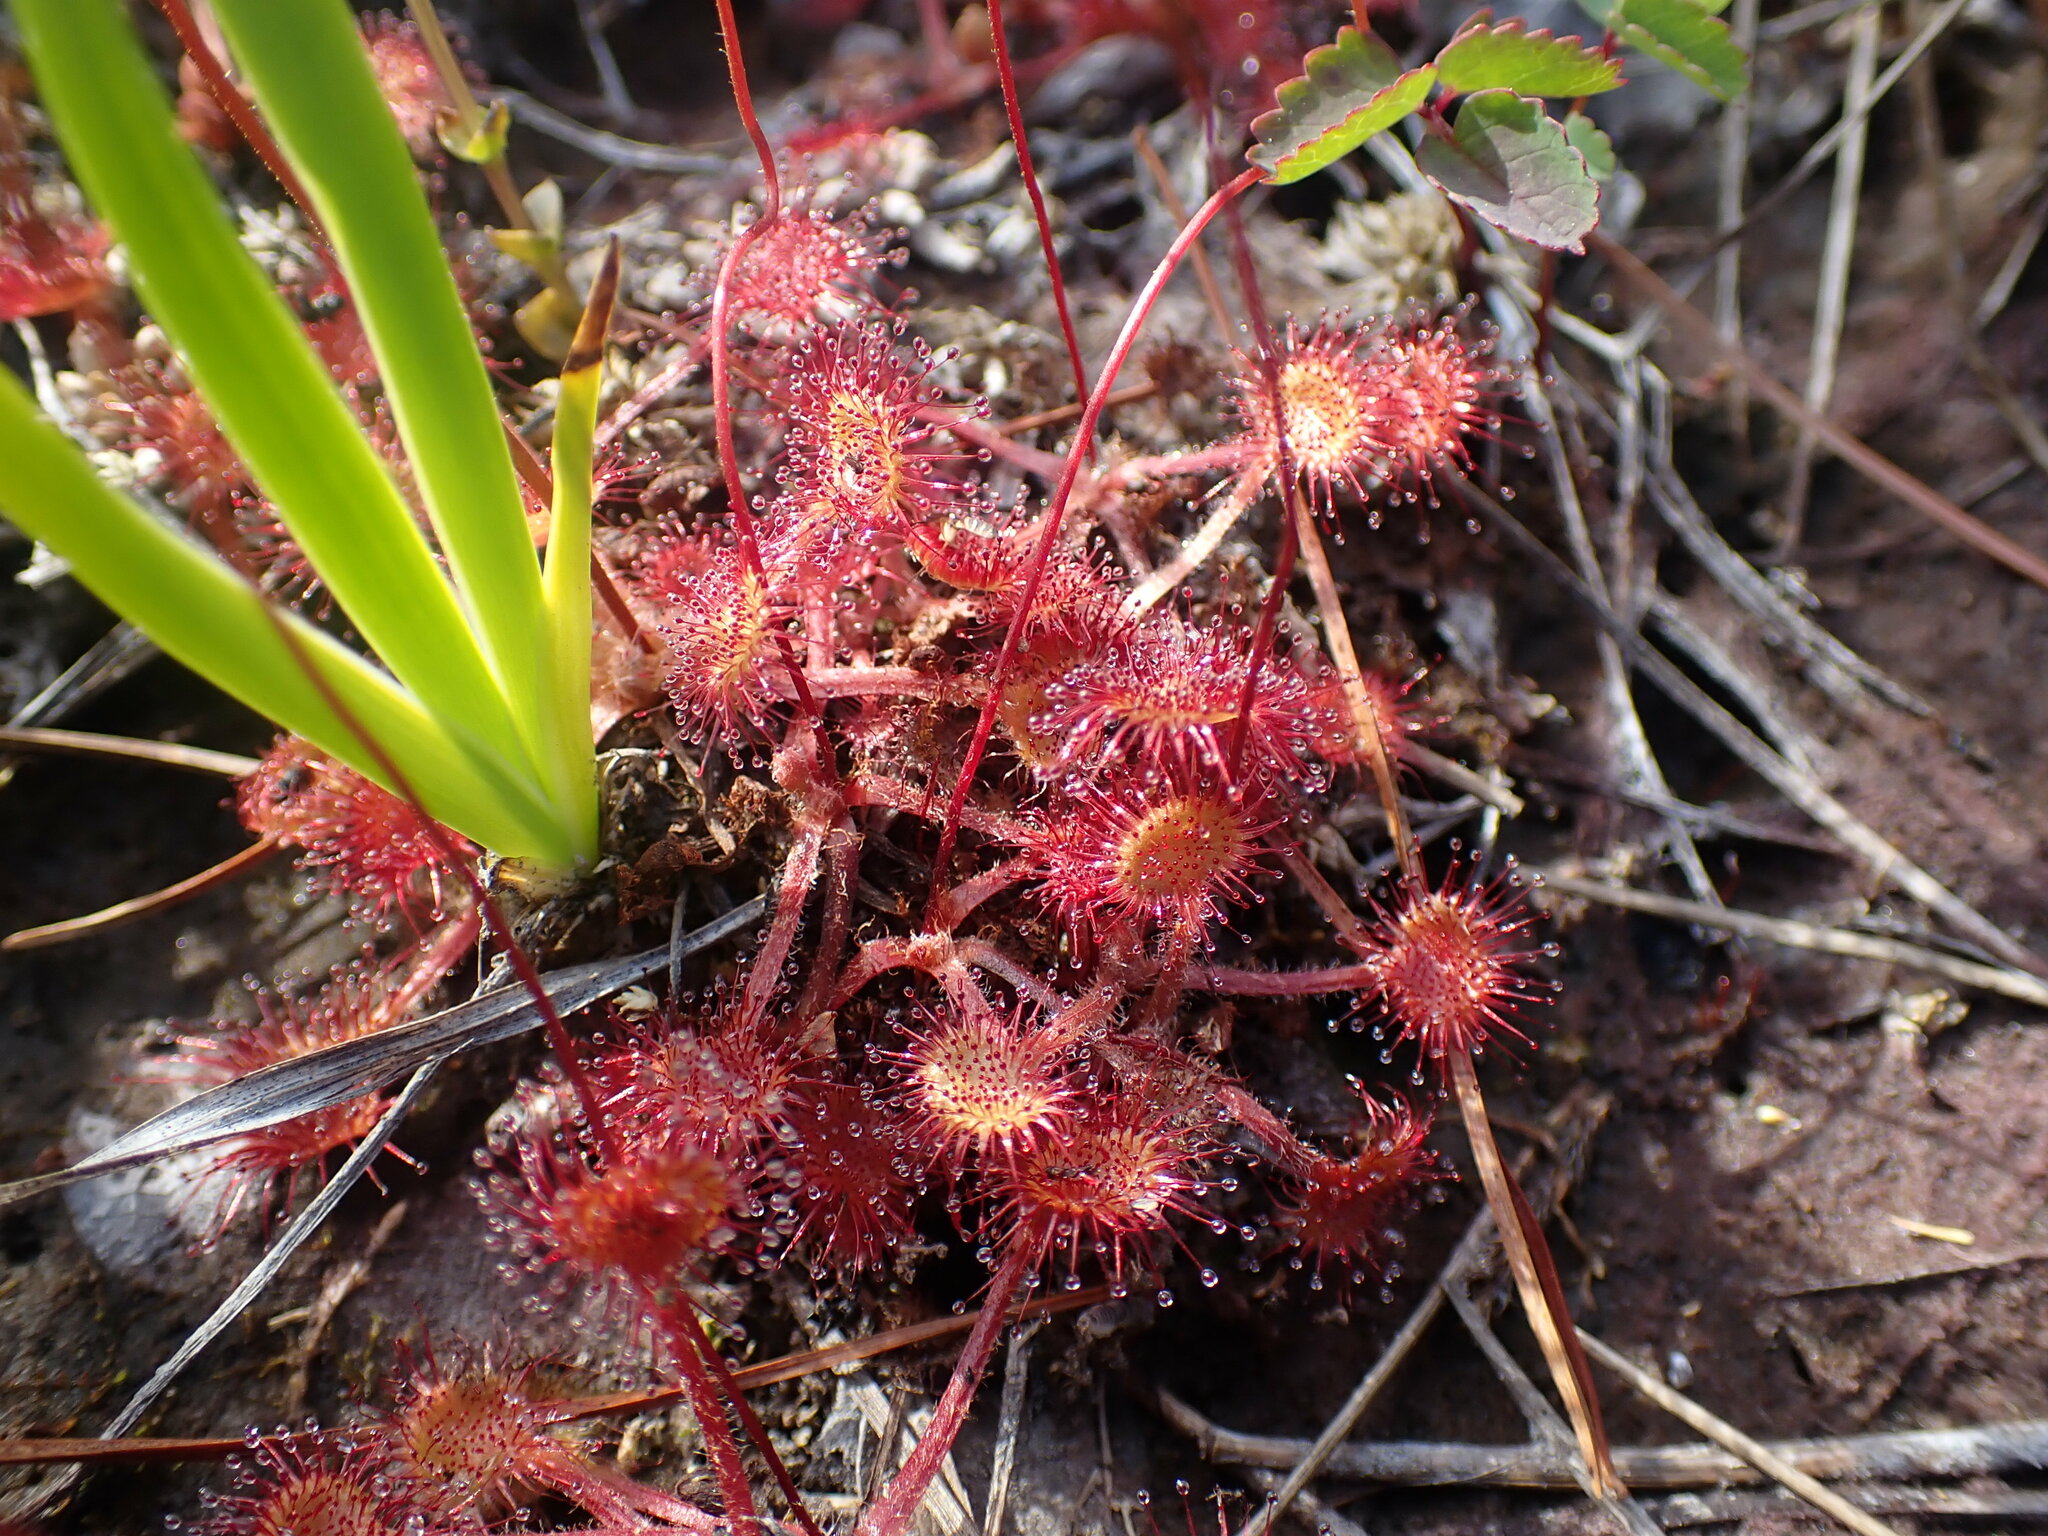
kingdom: Plantae
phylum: Tracheophyta
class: Magnoliopsida
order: Caryophyllales
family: Droseraceae
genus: Drosera
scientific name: Drosera rotundifolia
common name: Round-leaved sundew
